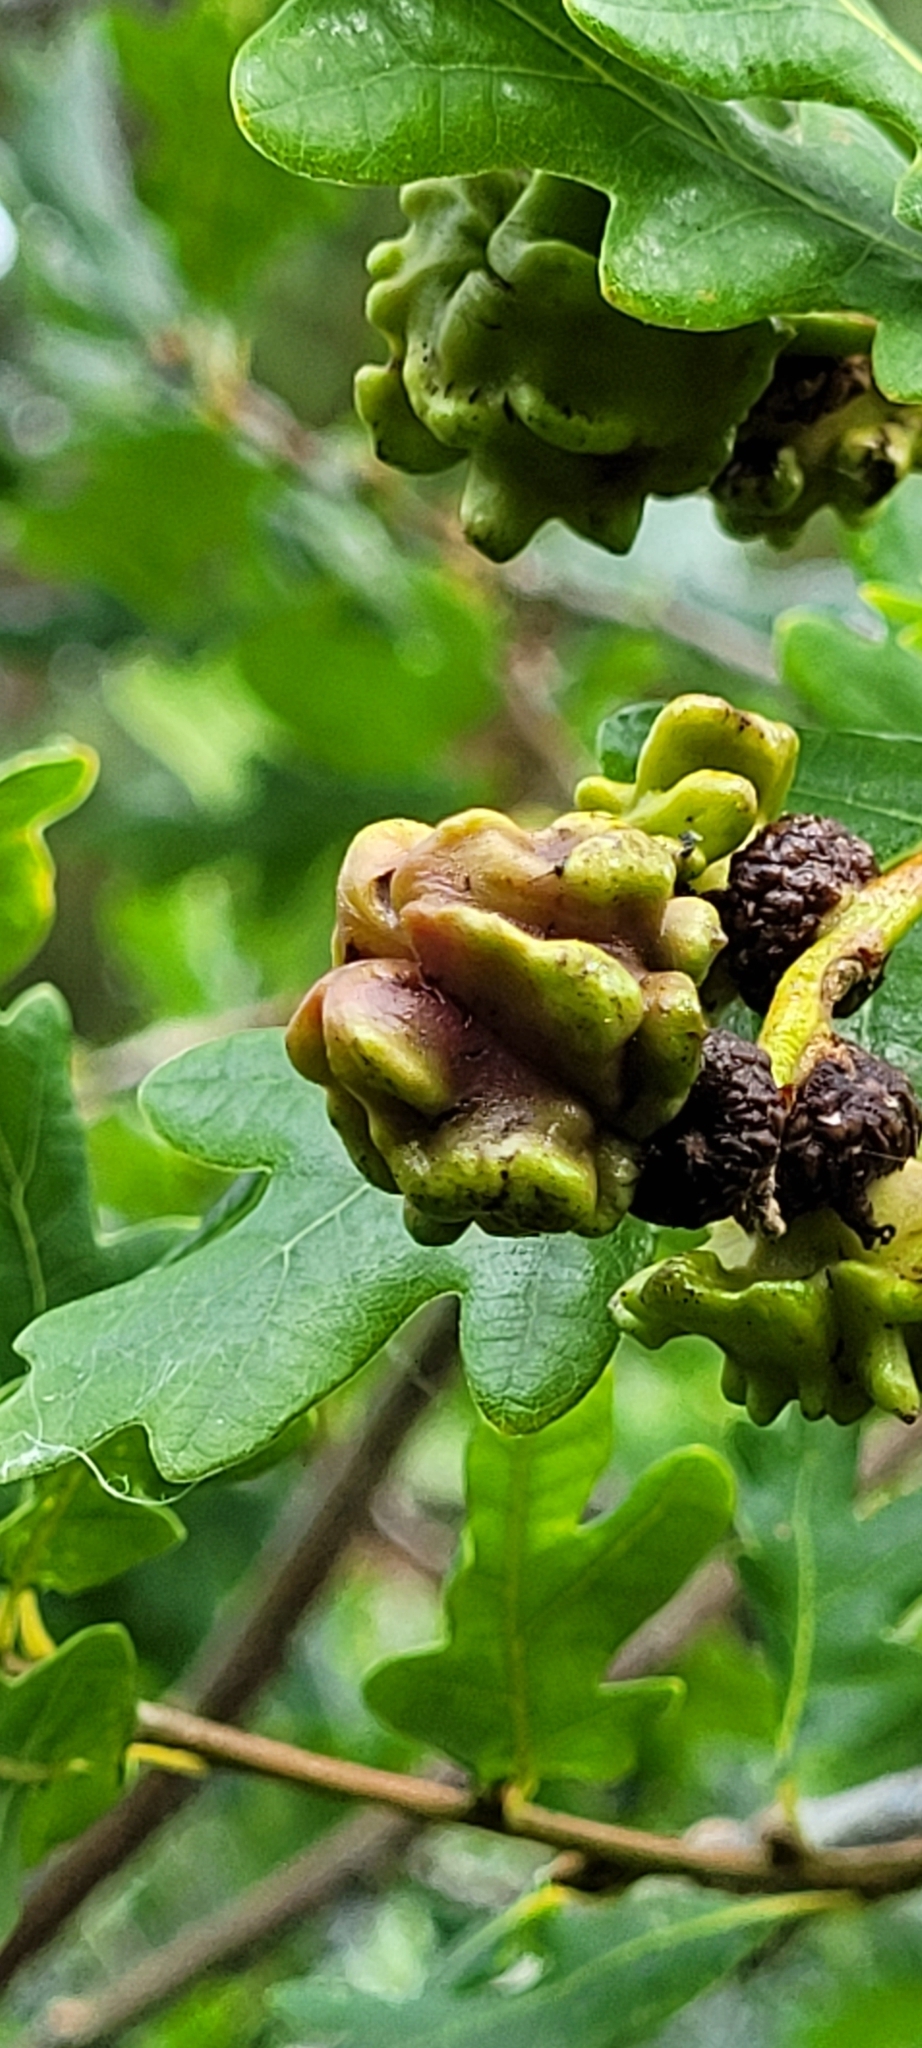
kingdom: Animalia
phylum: Arthropoda
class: Insecta
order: Hymenoptera
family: Cynipidae
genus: Andricus
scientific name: Andricus quercuscalicis
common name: Knopper gall
